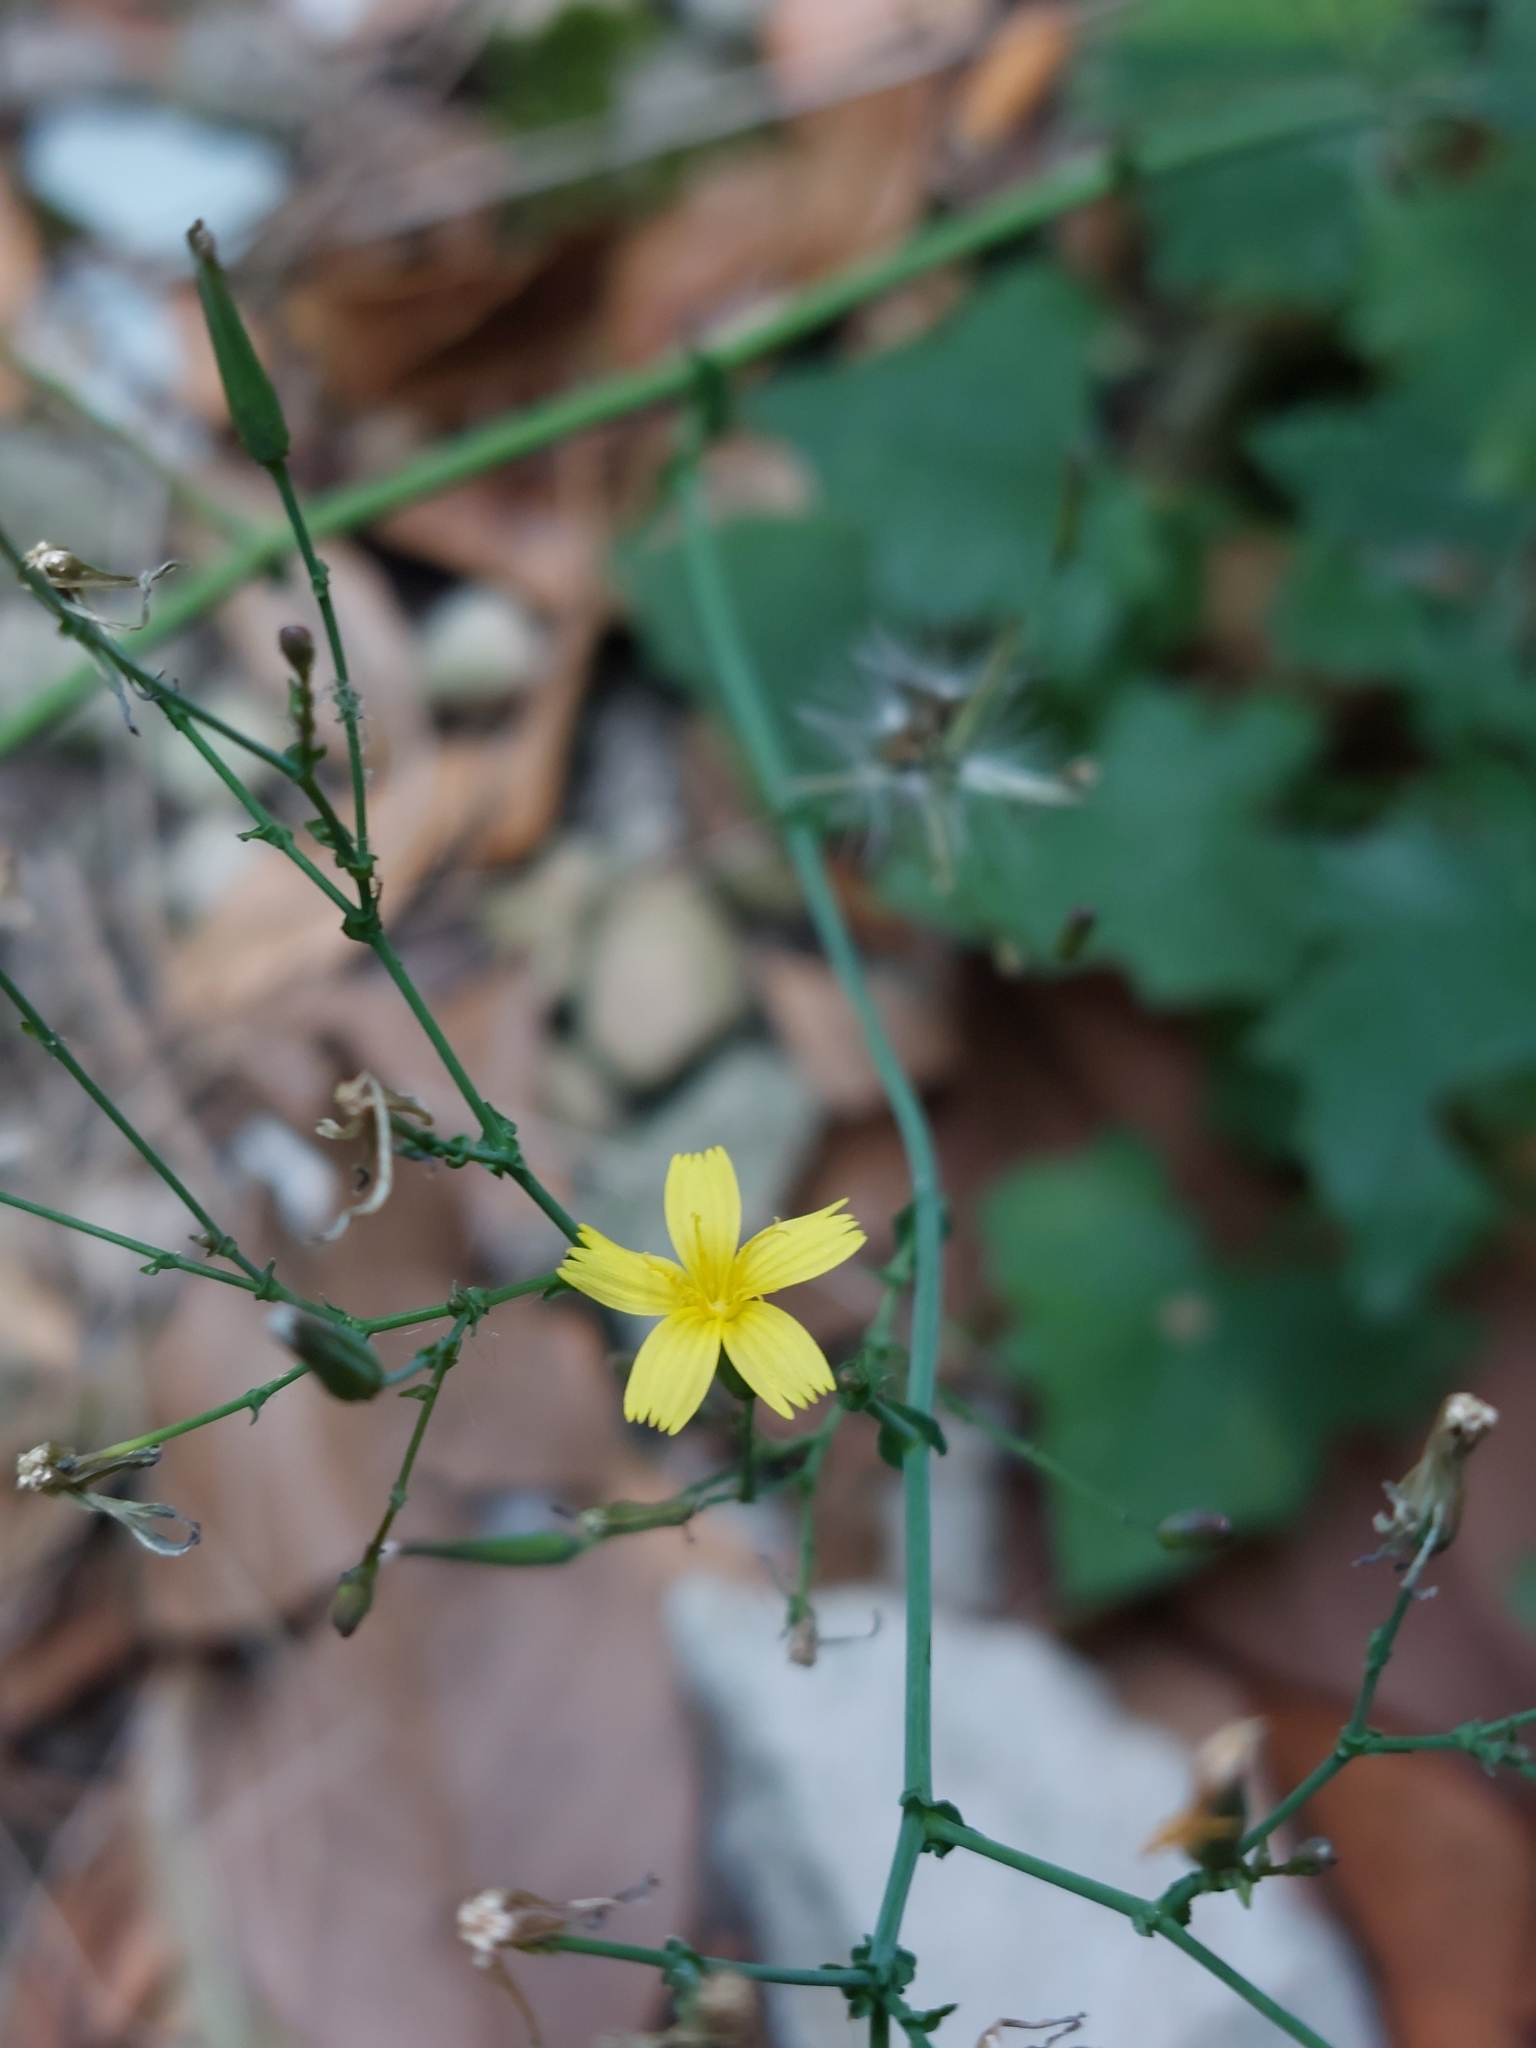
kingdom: Plantae
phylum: Tracheophyta
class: Magnoliopsida
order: Asterales
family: Asteraceae
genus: Mycelis
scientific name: Mycelis muralis
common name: Wall lettuce
